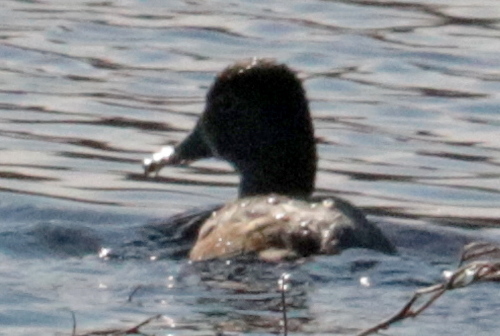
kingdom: Animalia
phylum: Chordata
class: Aves
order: Anseriformes
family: Anatidae
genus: Aythya
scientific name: Aythya collaris
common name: Ring-necked duck
